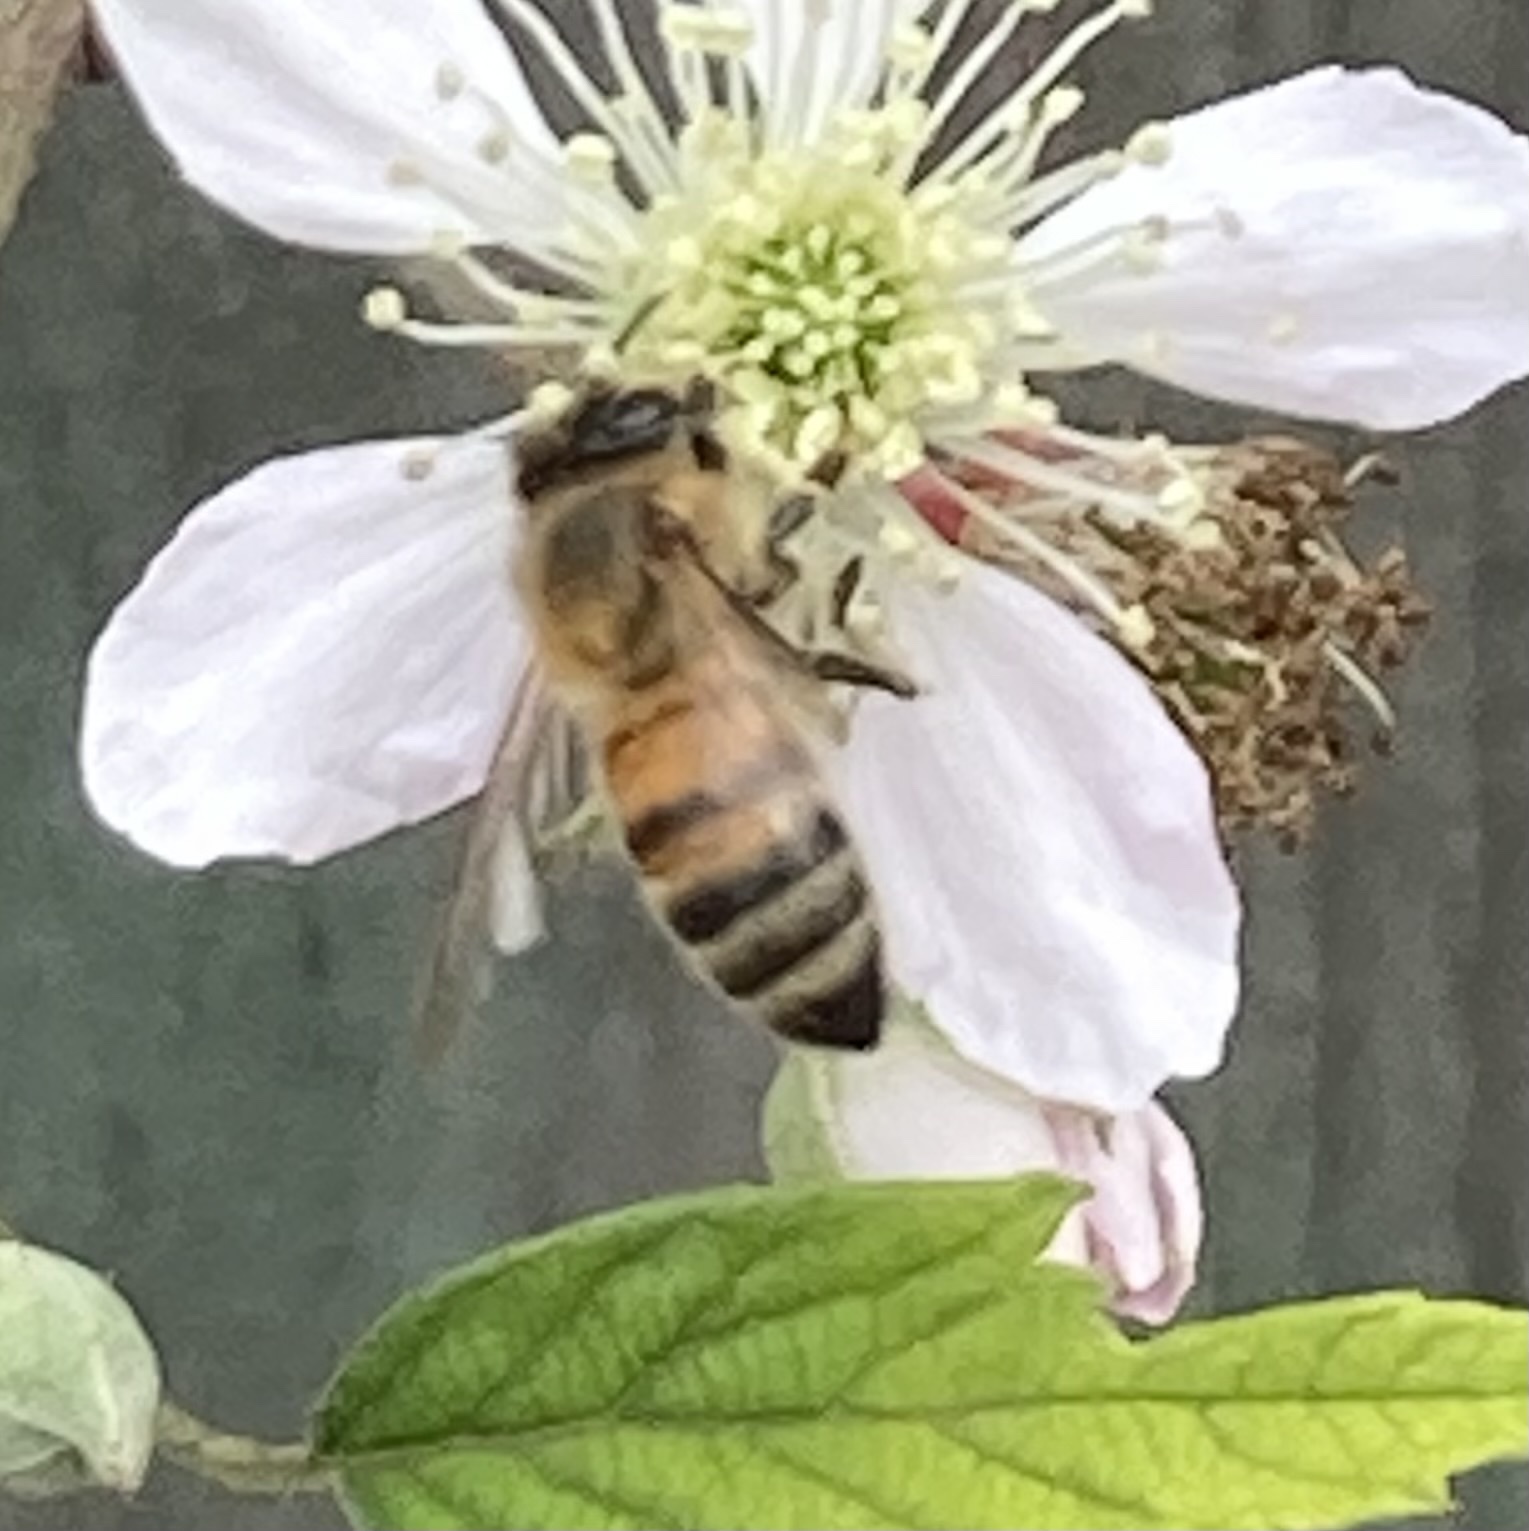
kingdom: Animalia
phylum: Arthropoda
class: Insecta
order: Hymenoptera
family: Apidae
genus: Apis
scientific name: Apis mellifera
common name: Honey bee
